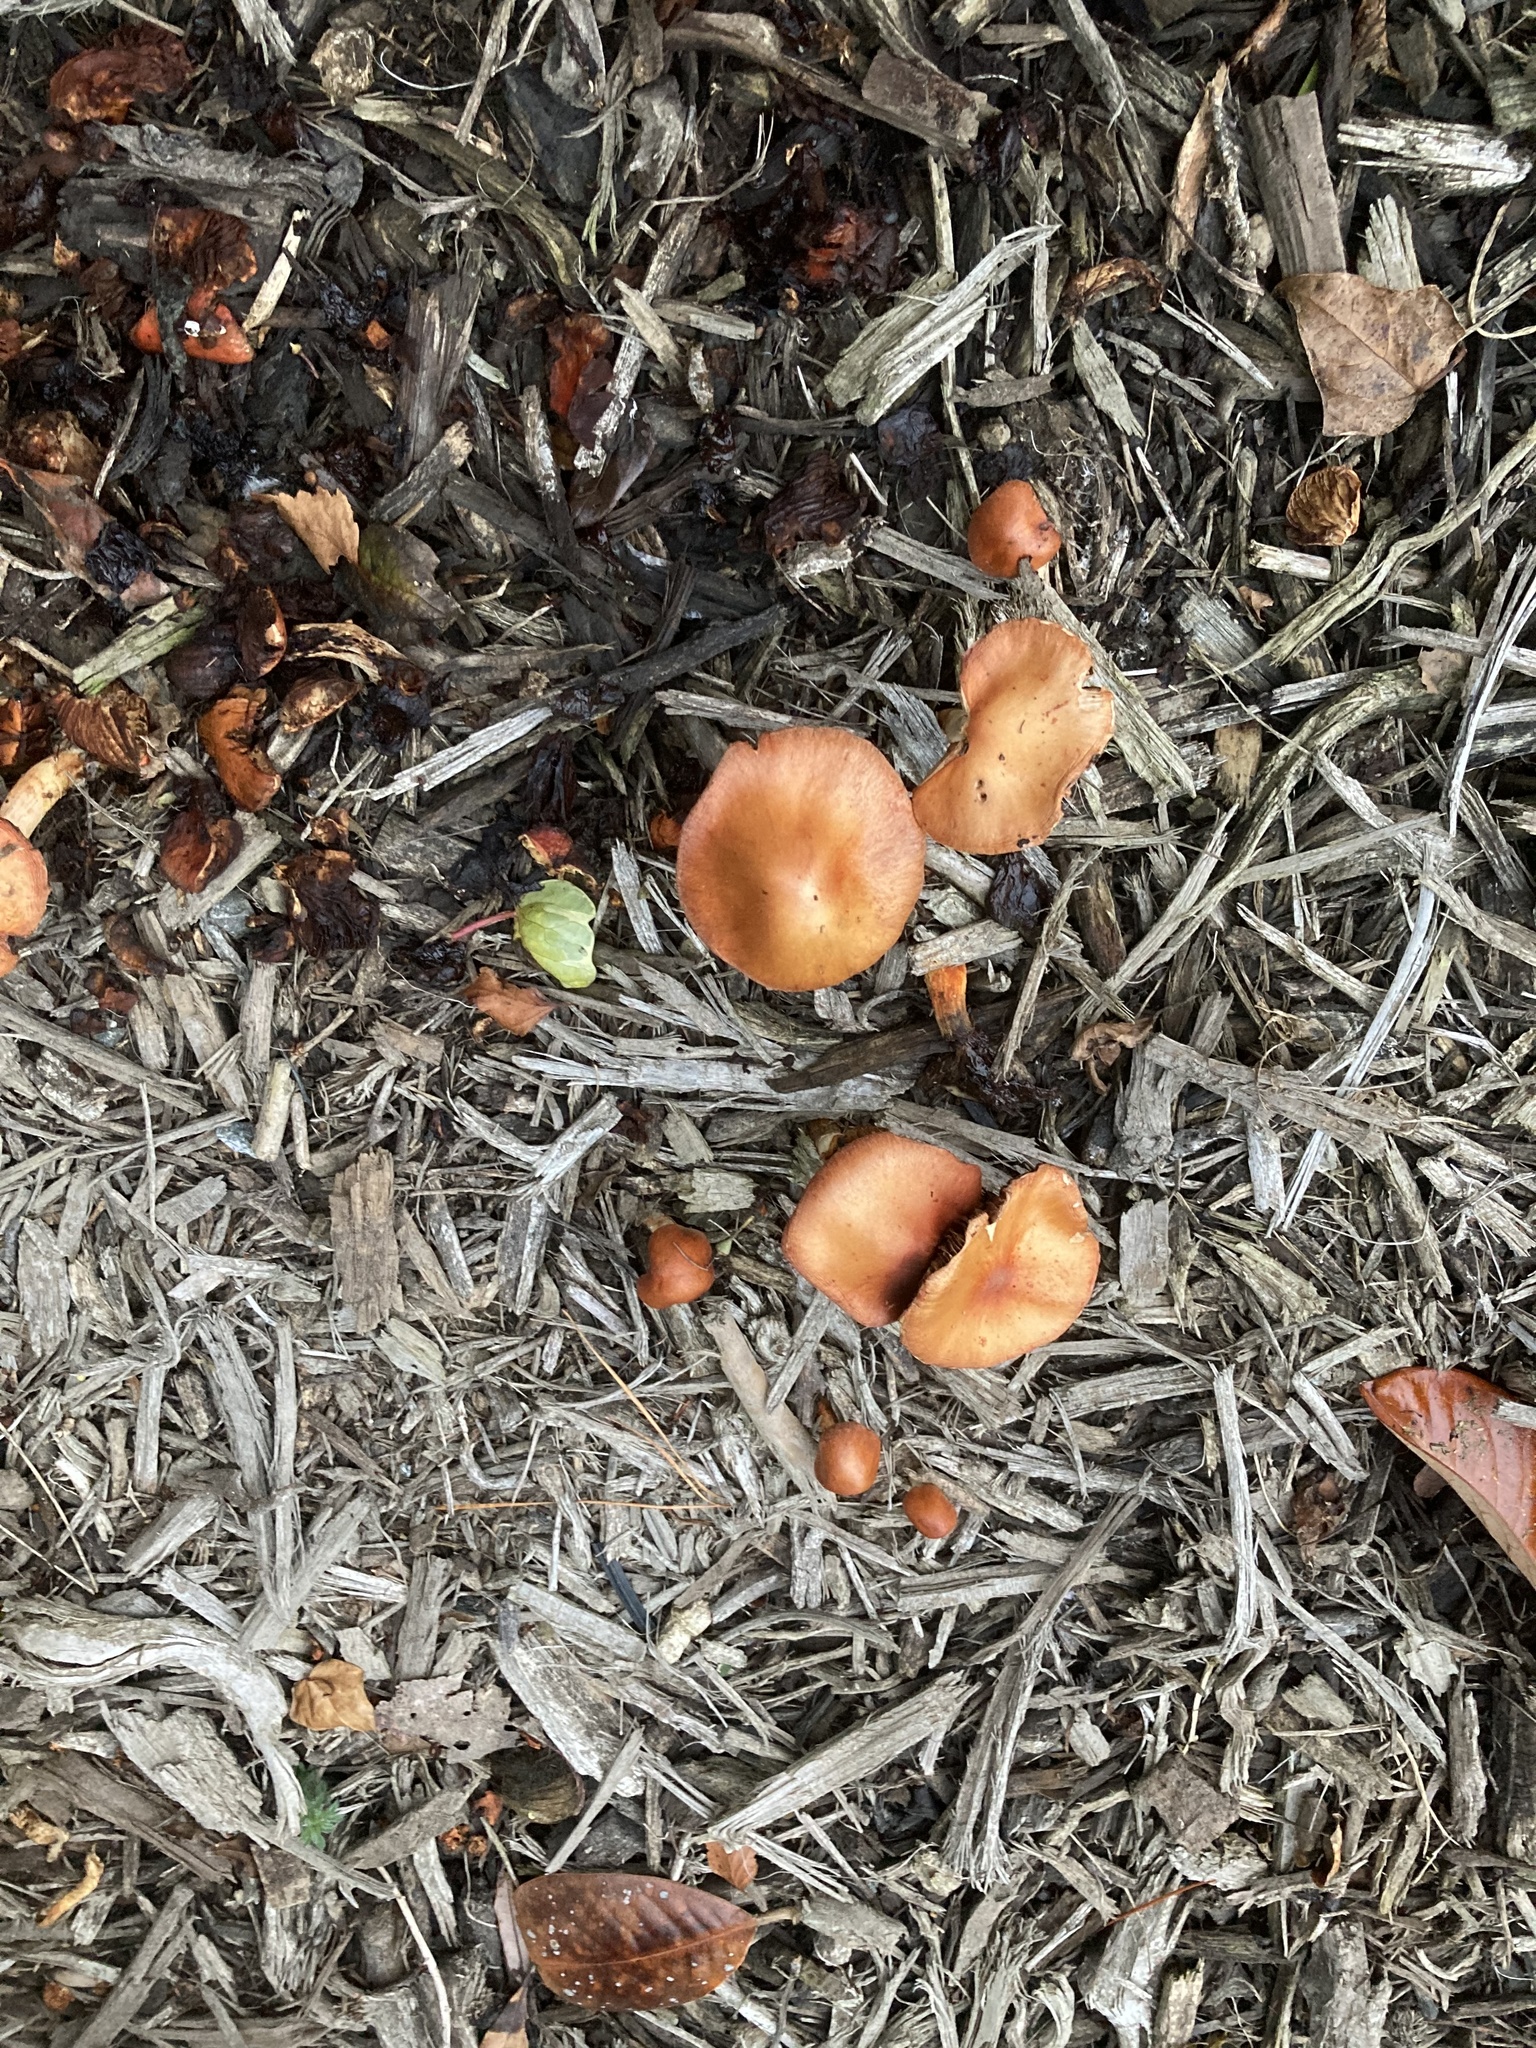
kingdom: Fungi
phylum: Basidiomycota
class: Agaricomycetes
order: Agaricales
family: Strophariaceae
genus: Leratiomyces
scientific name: Leratiomyces ceres
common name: Redlead roundhead
